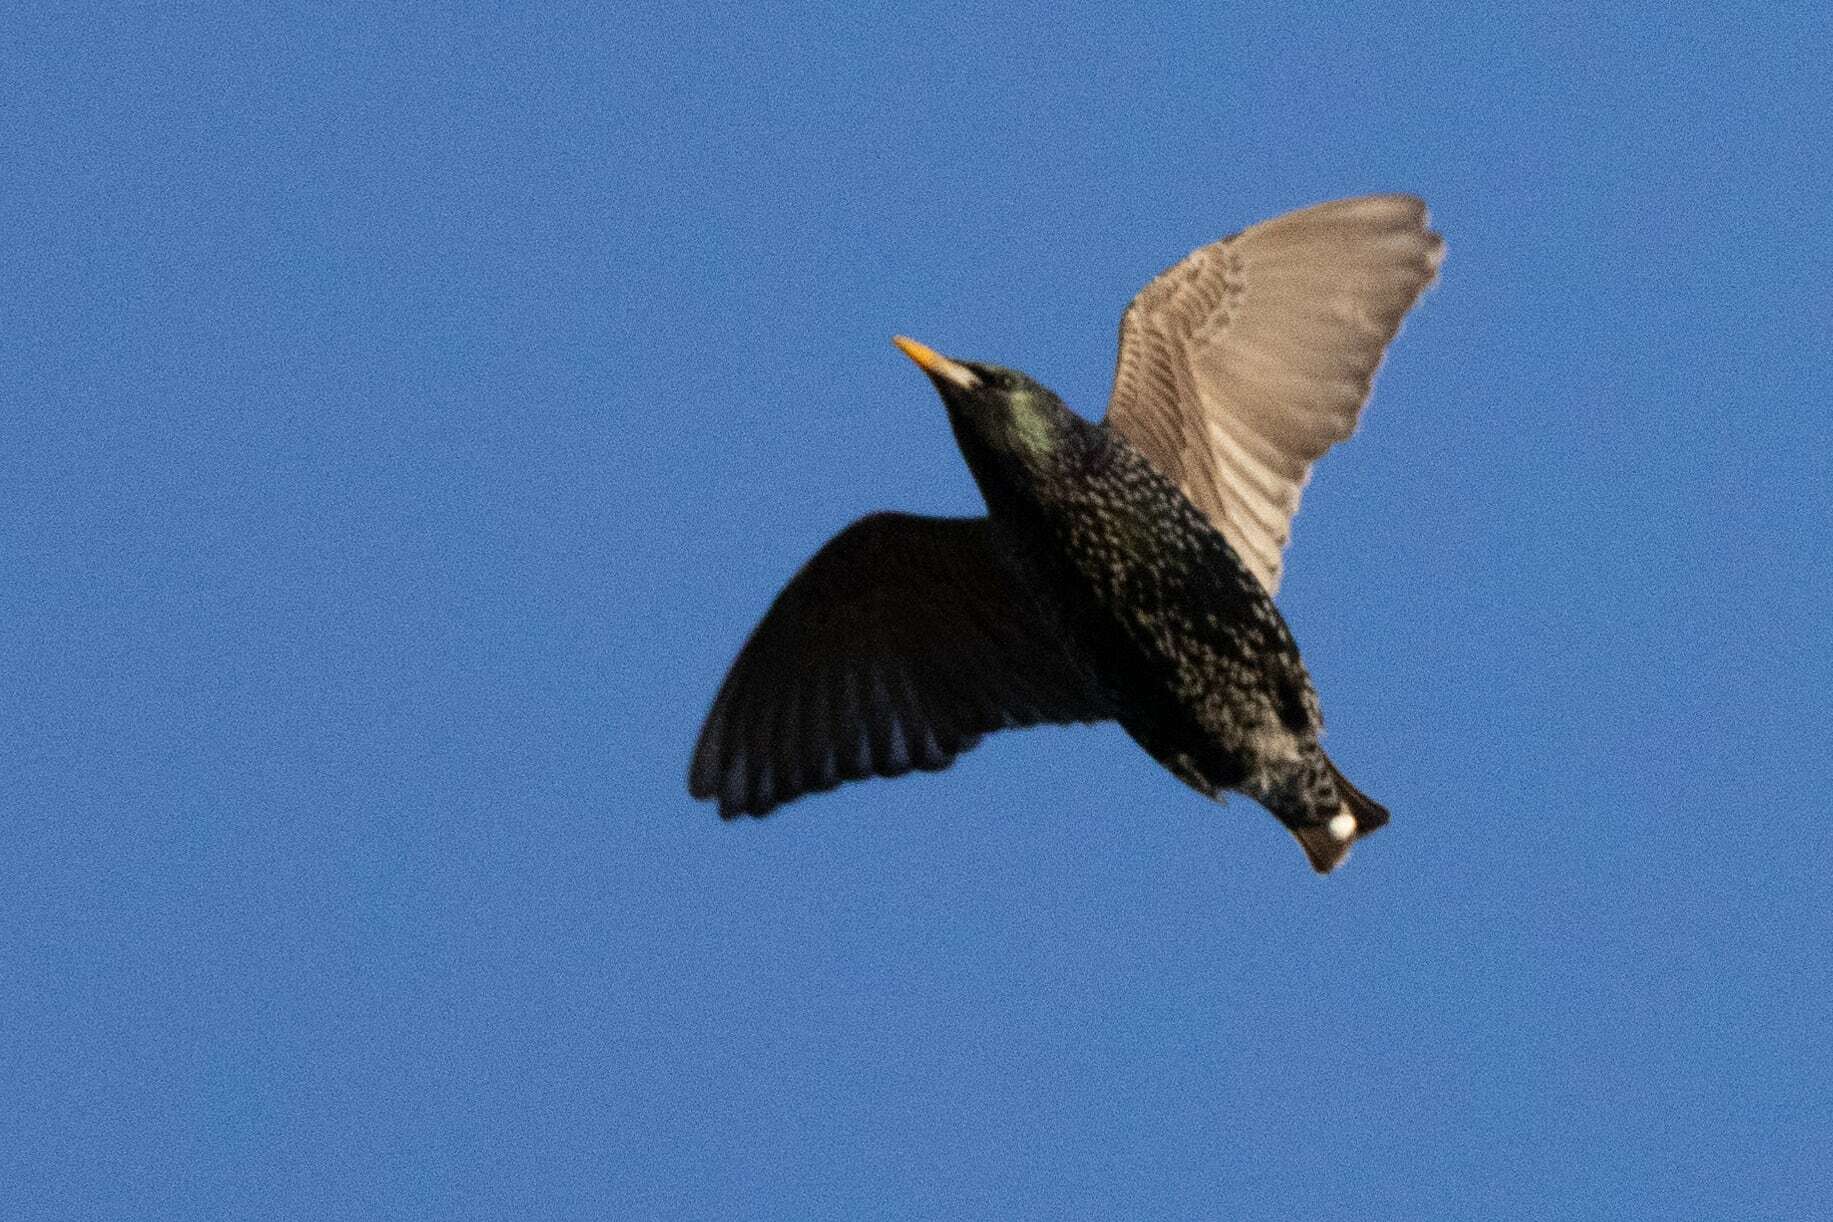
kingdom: Animalia
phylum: Chordata
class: Aves
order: Passeriformes
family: Sturnidae
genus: Sturnus
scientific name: Sturnus vulgaris
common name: Common starling
